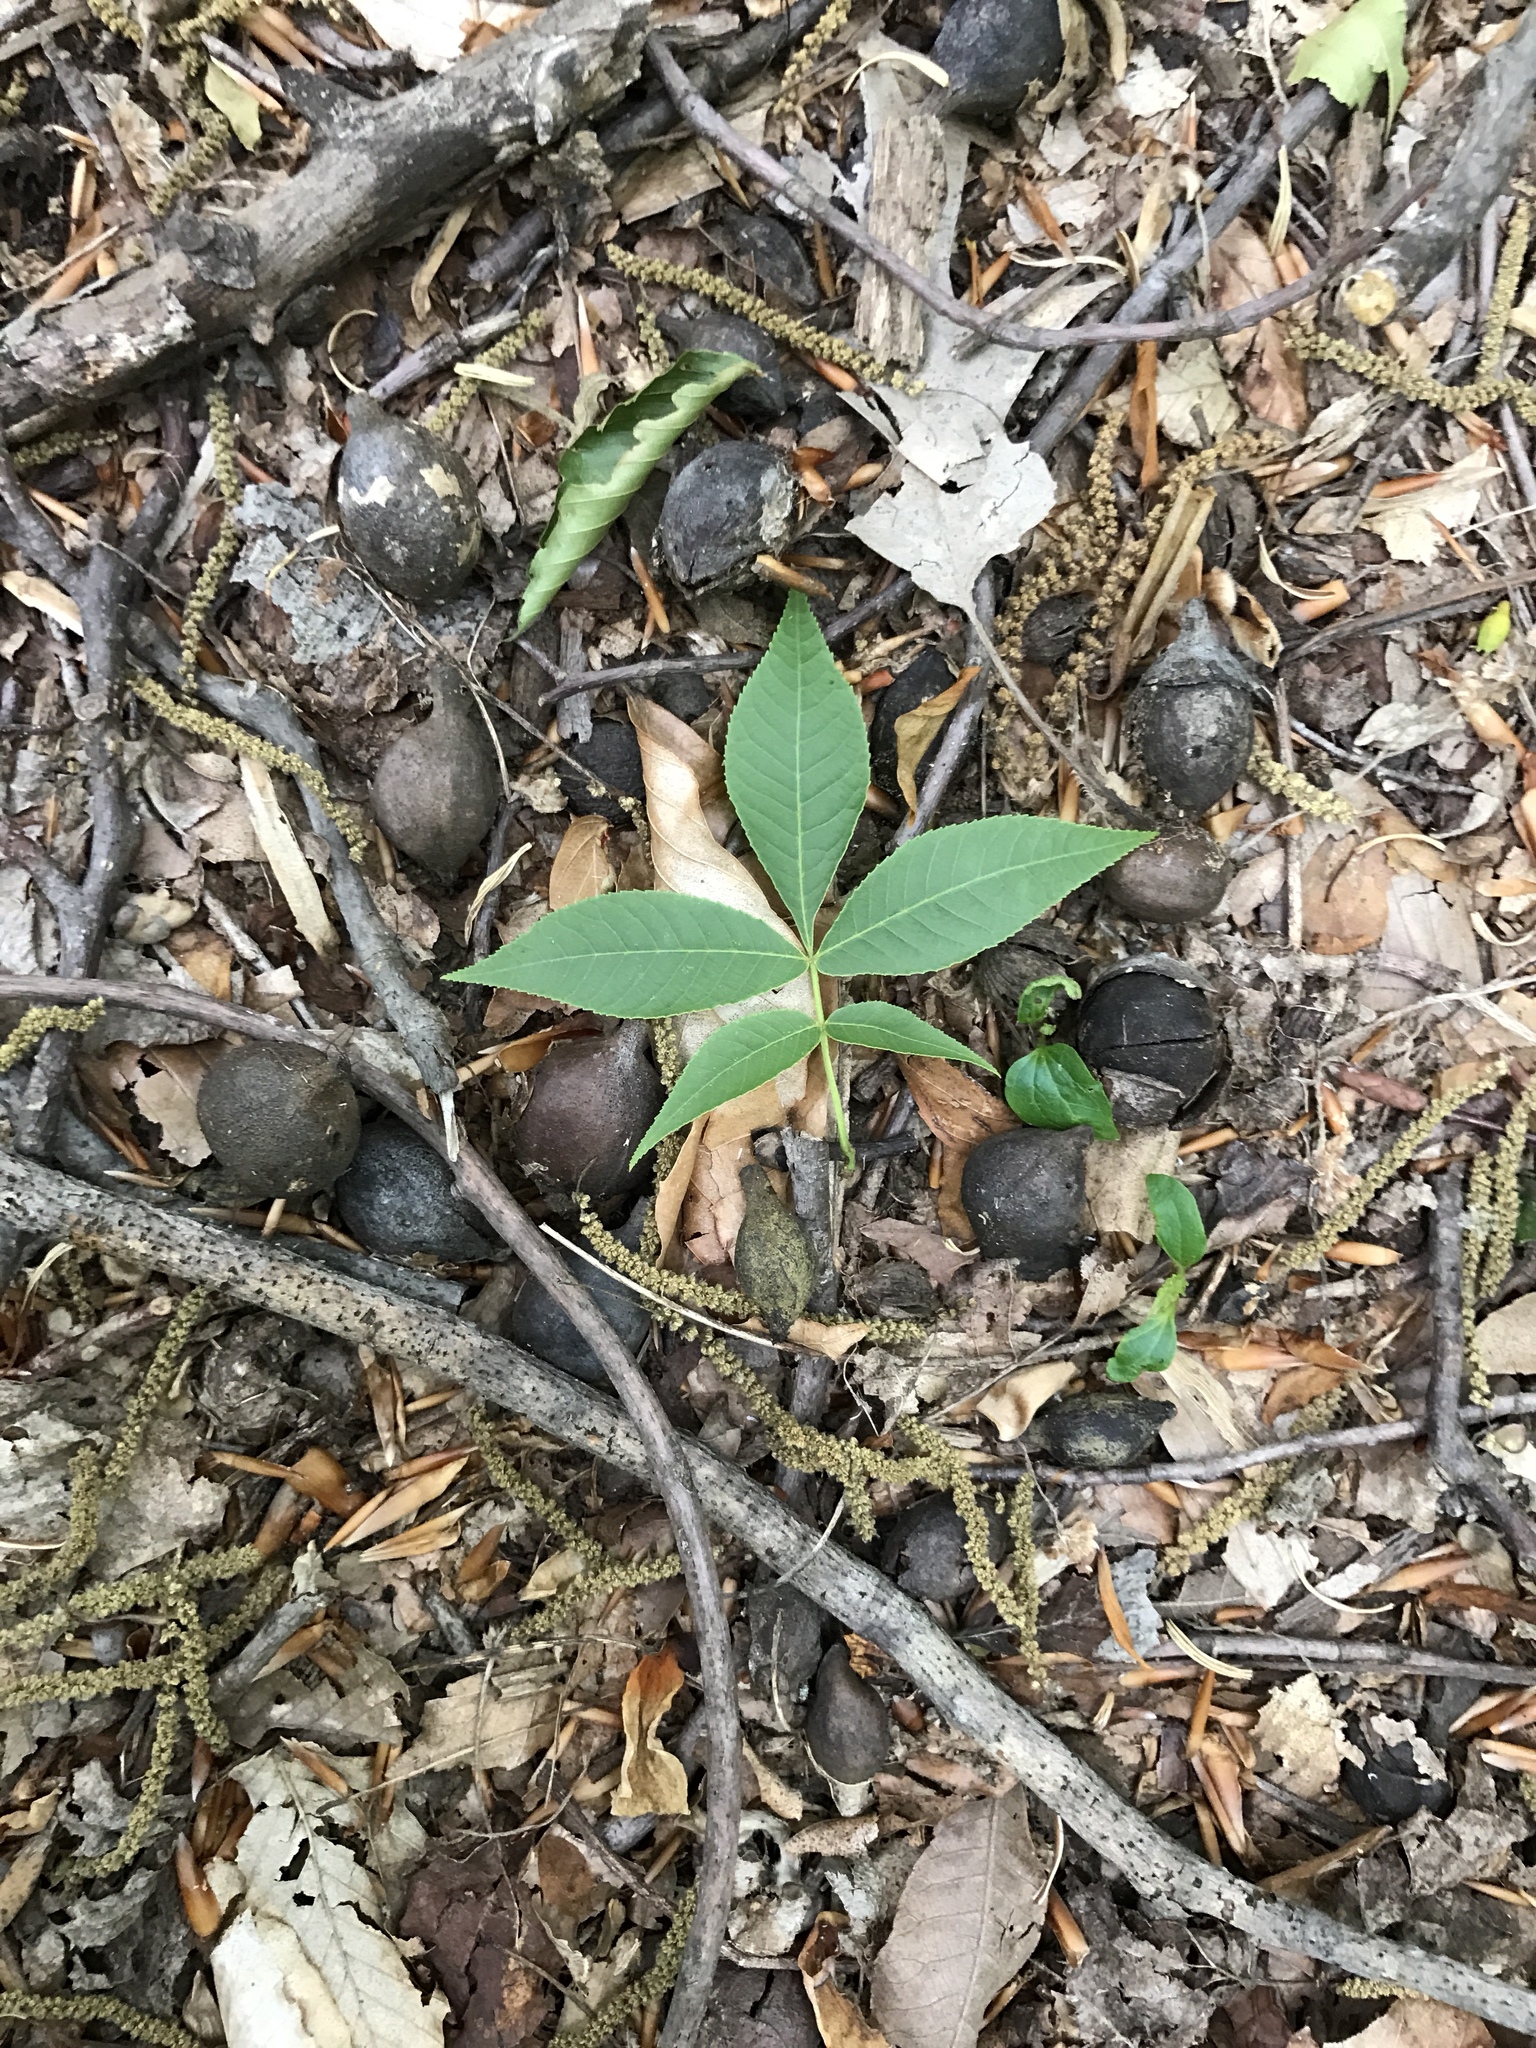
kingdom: Plantae
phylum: Tracheophyta
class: Magnoliopsida
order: Fagales
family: Juglandaceae
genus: Carya
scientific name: Carya glabra
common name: Pignut hickory
